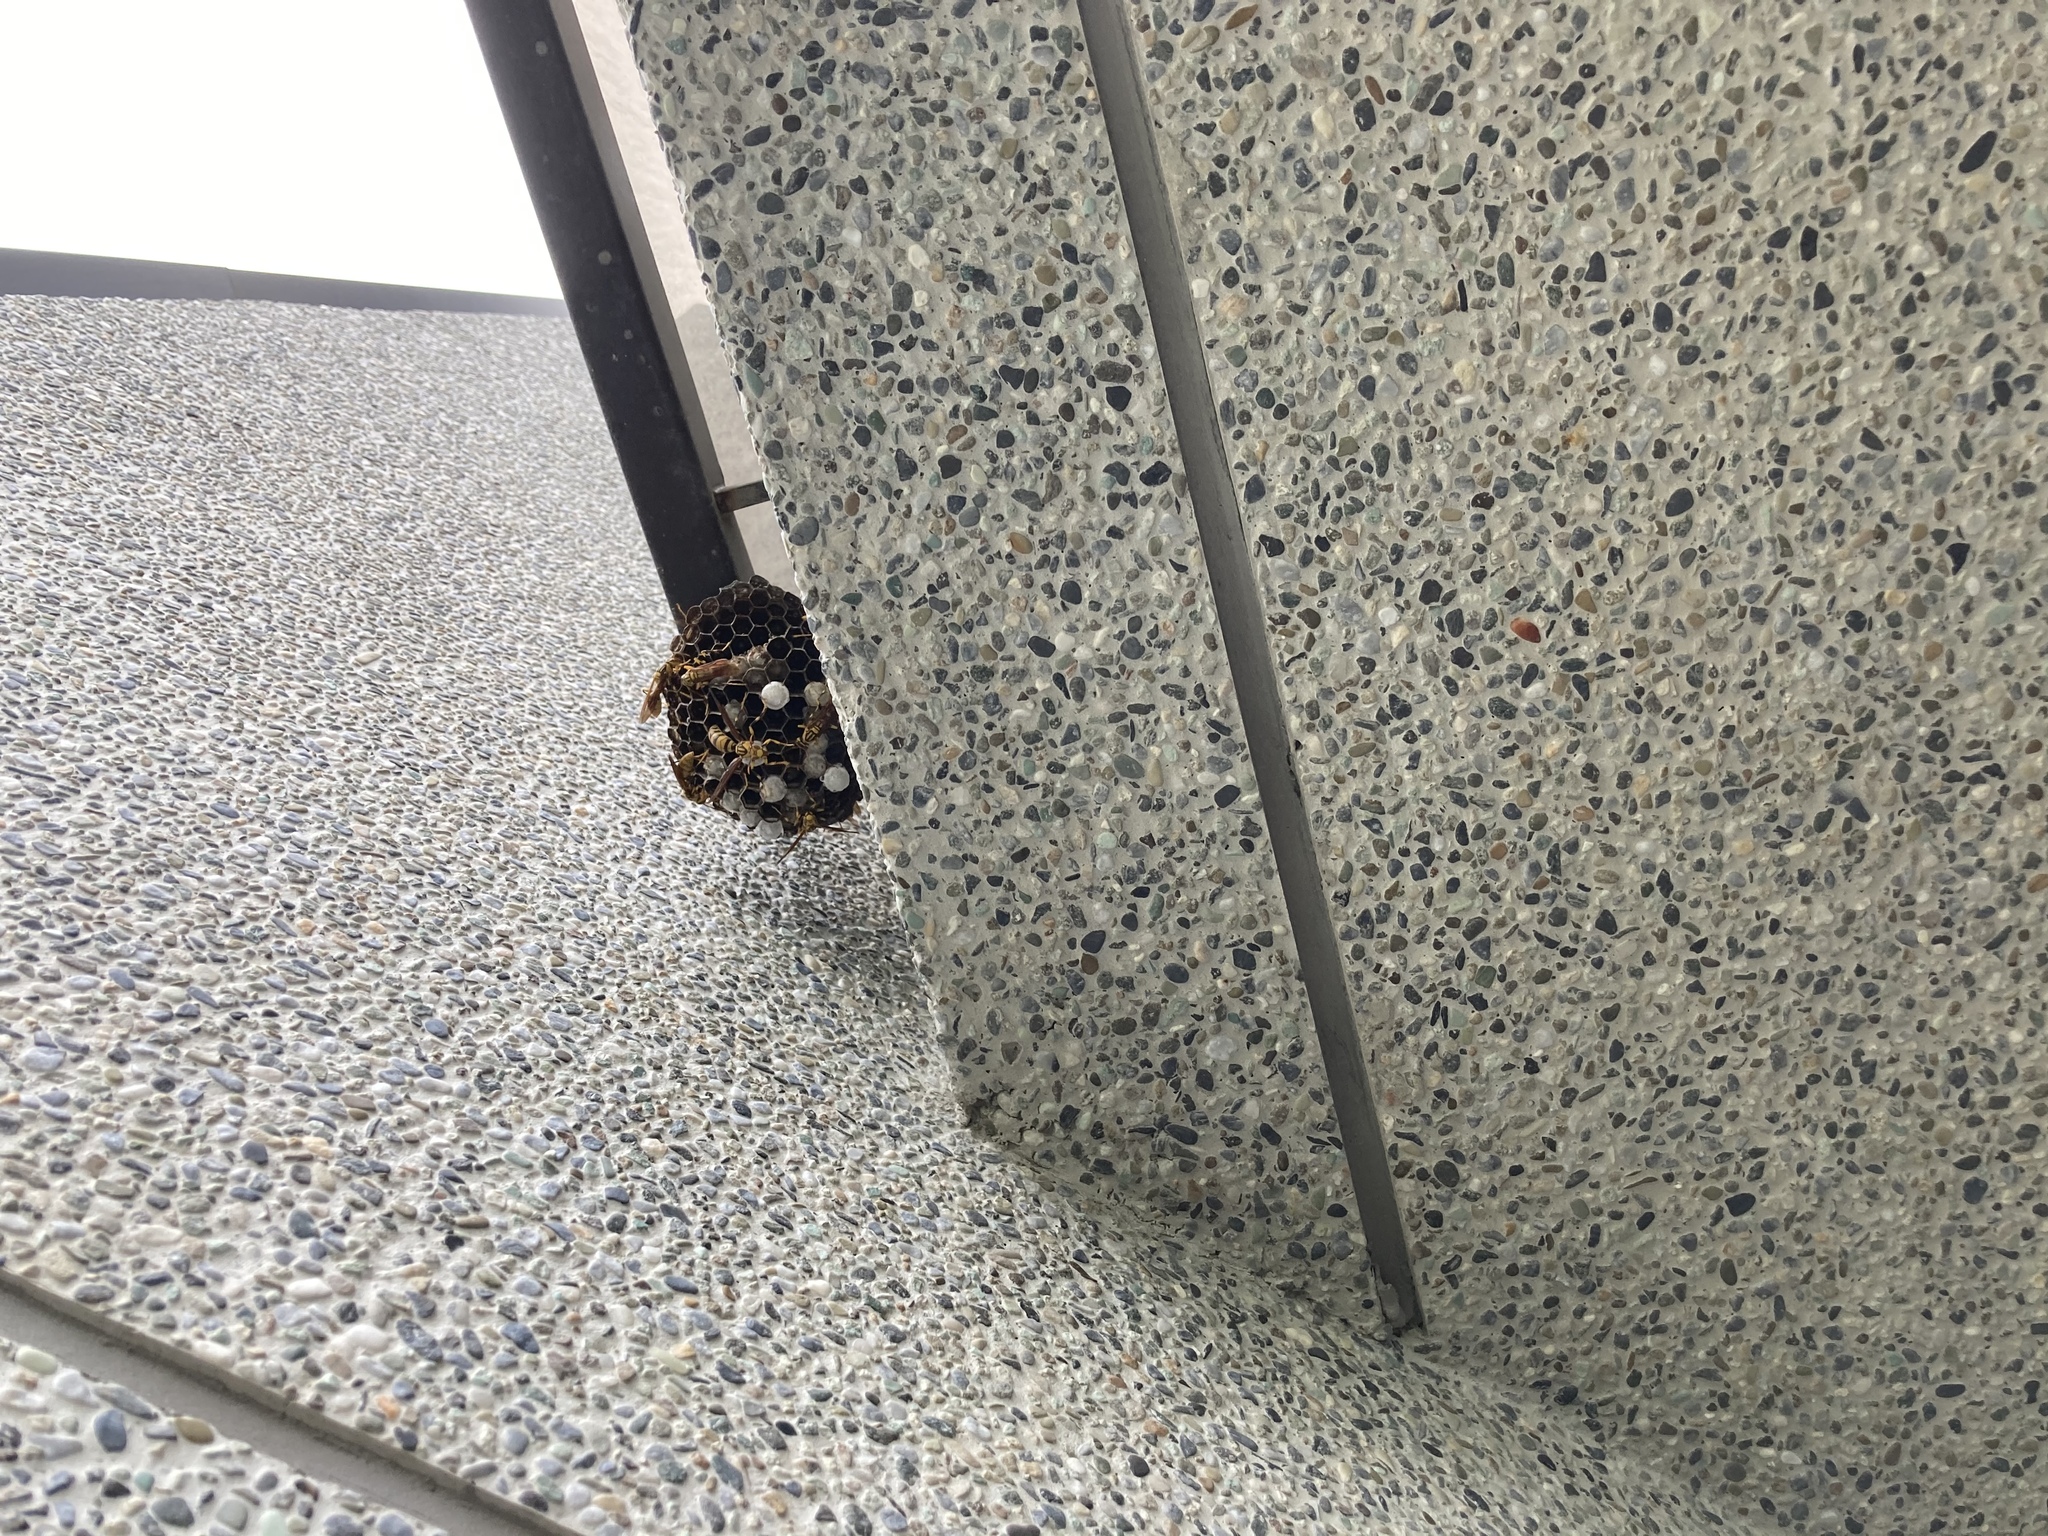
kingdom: Animalia
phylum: Arthropoda
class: Insecta
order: Hymenoptera
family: Eumenidae
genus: Polistes
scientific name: Polistes rothneyi
